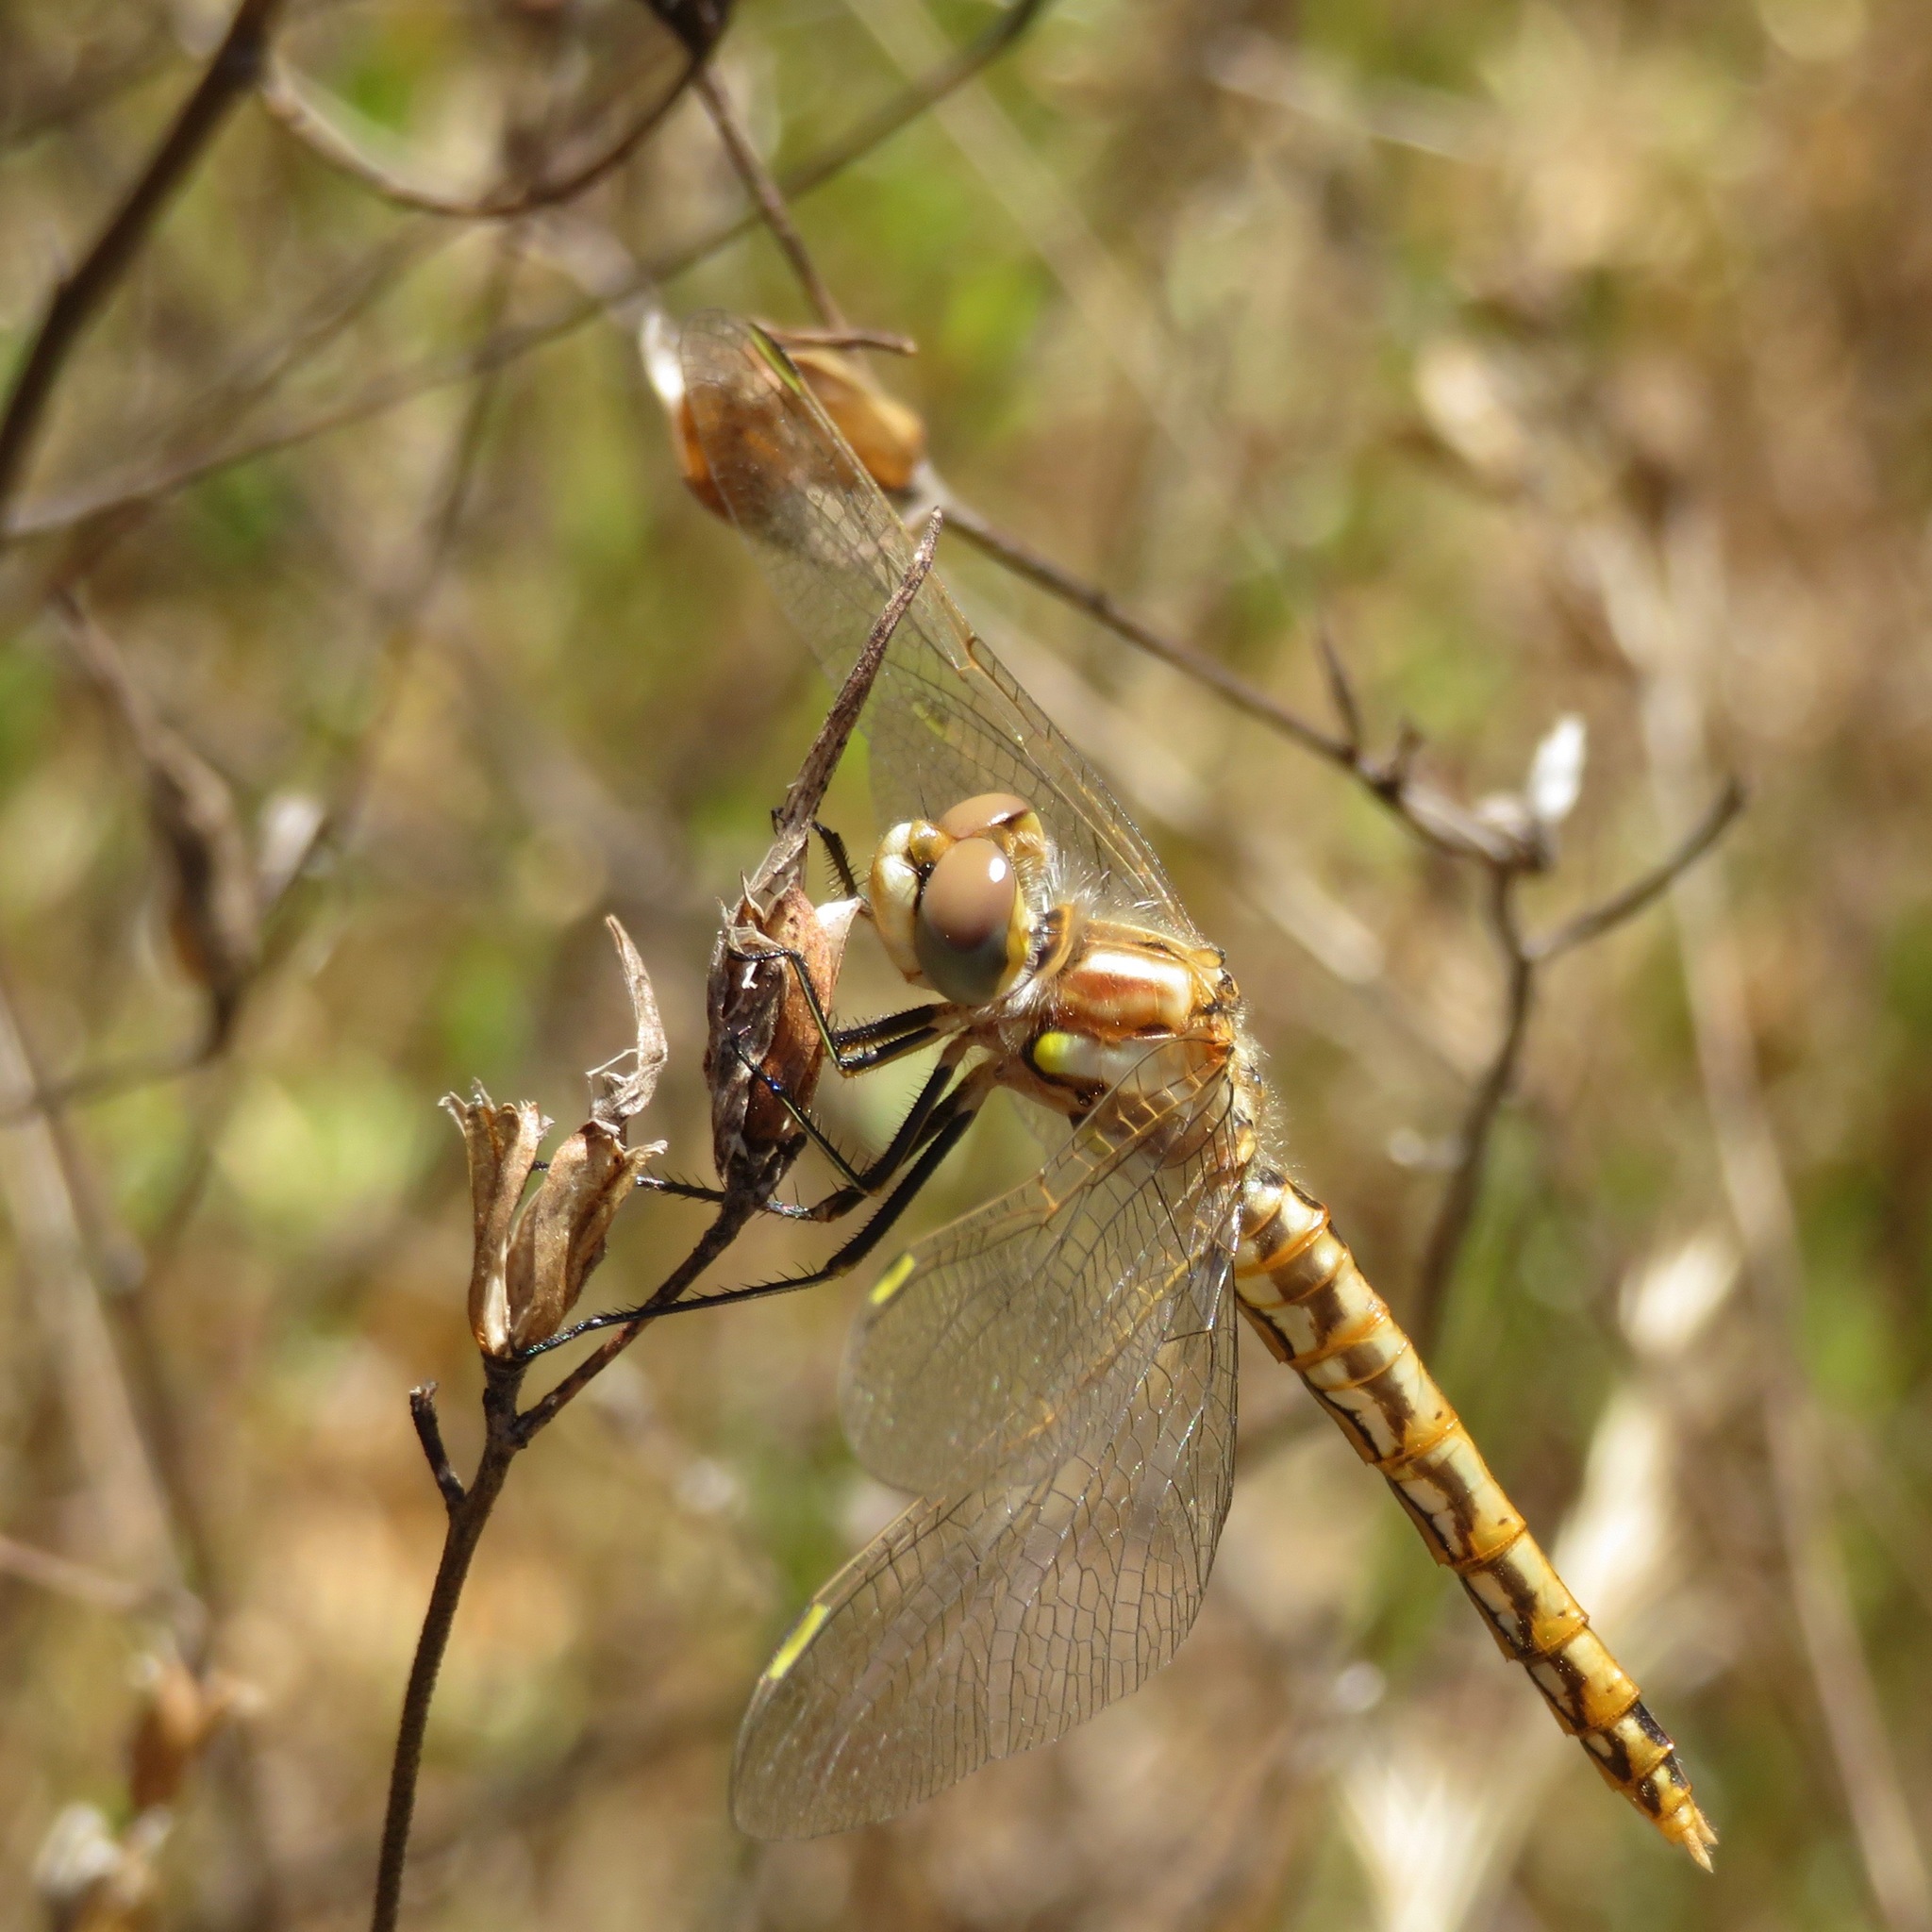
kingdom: Animalia
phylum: Arthropoda
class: Insecta
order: Odonata
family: Libellulidae
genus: Sympetrum
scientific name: Sympetrum corruptum
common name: Variegated meadowhawk
